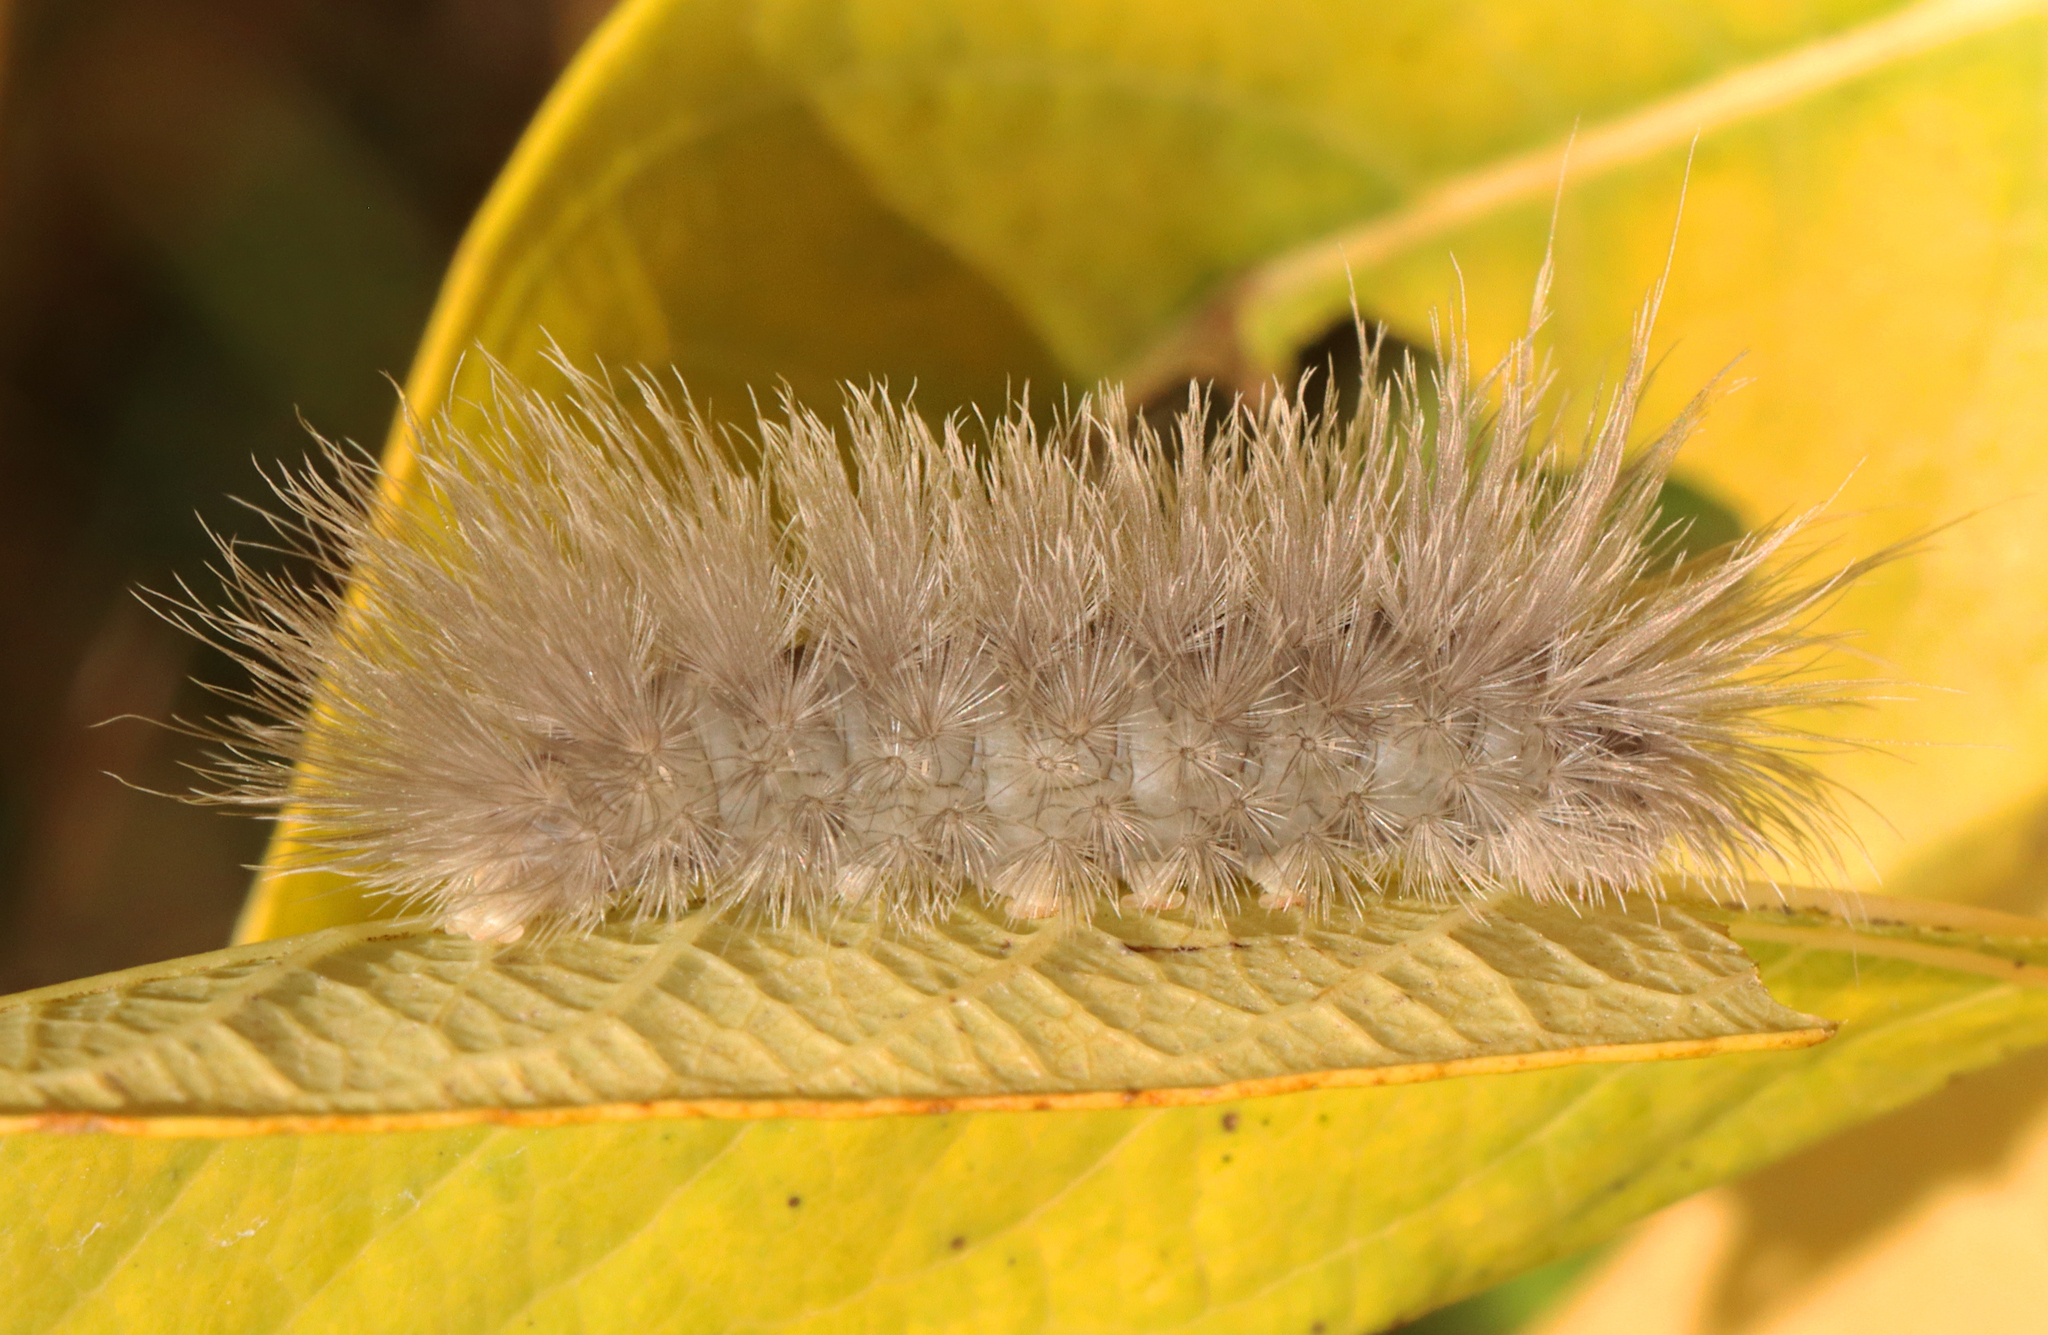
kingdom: Animalia
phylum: Arthropoda
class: Insecta
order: Lepidoptera
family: Erebidae
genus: Cycnia
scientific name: Cycnia tenera
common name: Delicate cycnia moth
